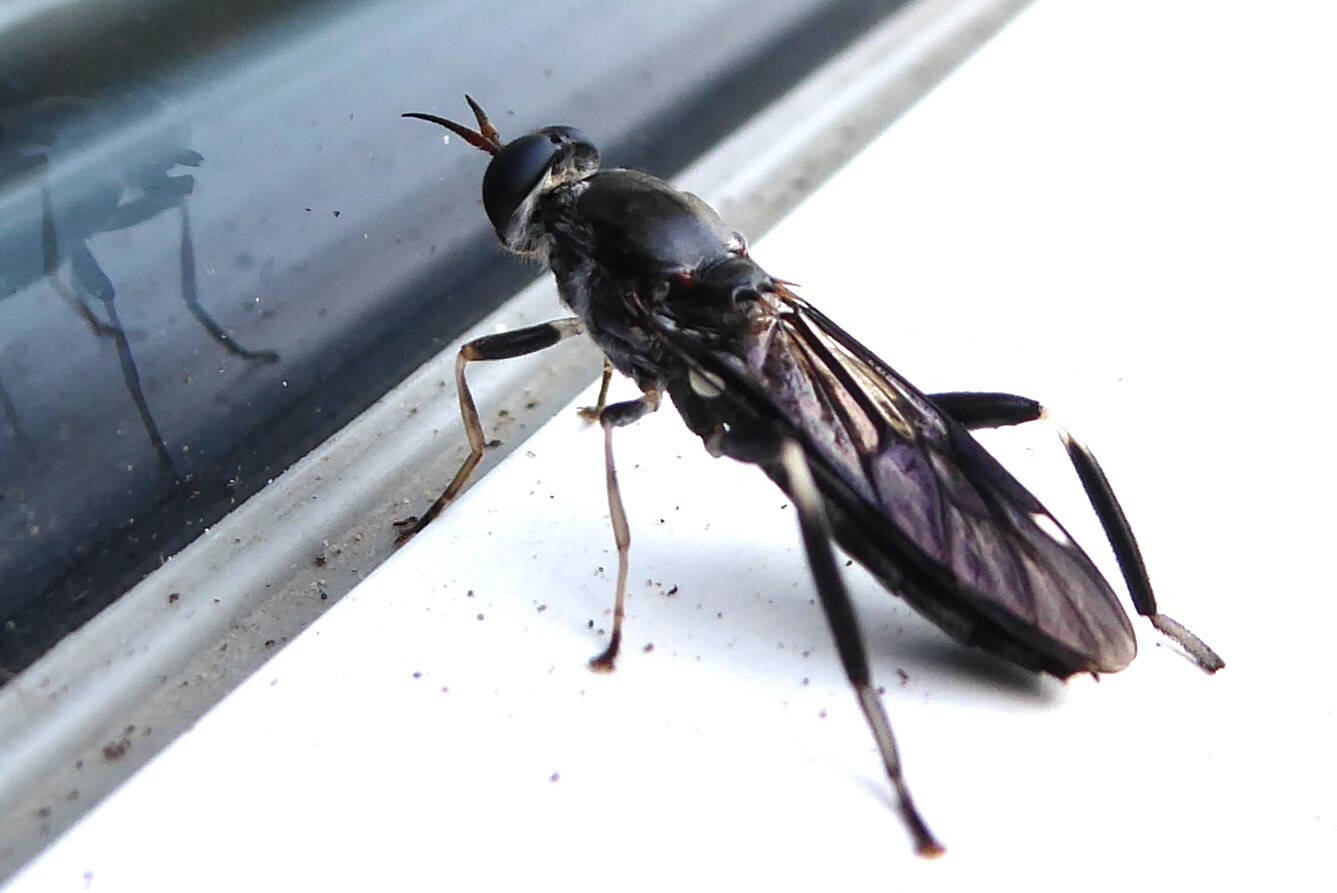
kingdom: Animalia
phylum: Arthropoda
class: Insecta
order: Diptera
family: Stratiomyidae
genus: Exaireta
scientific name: Exaireta spinigera
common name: Blue soldier fly
